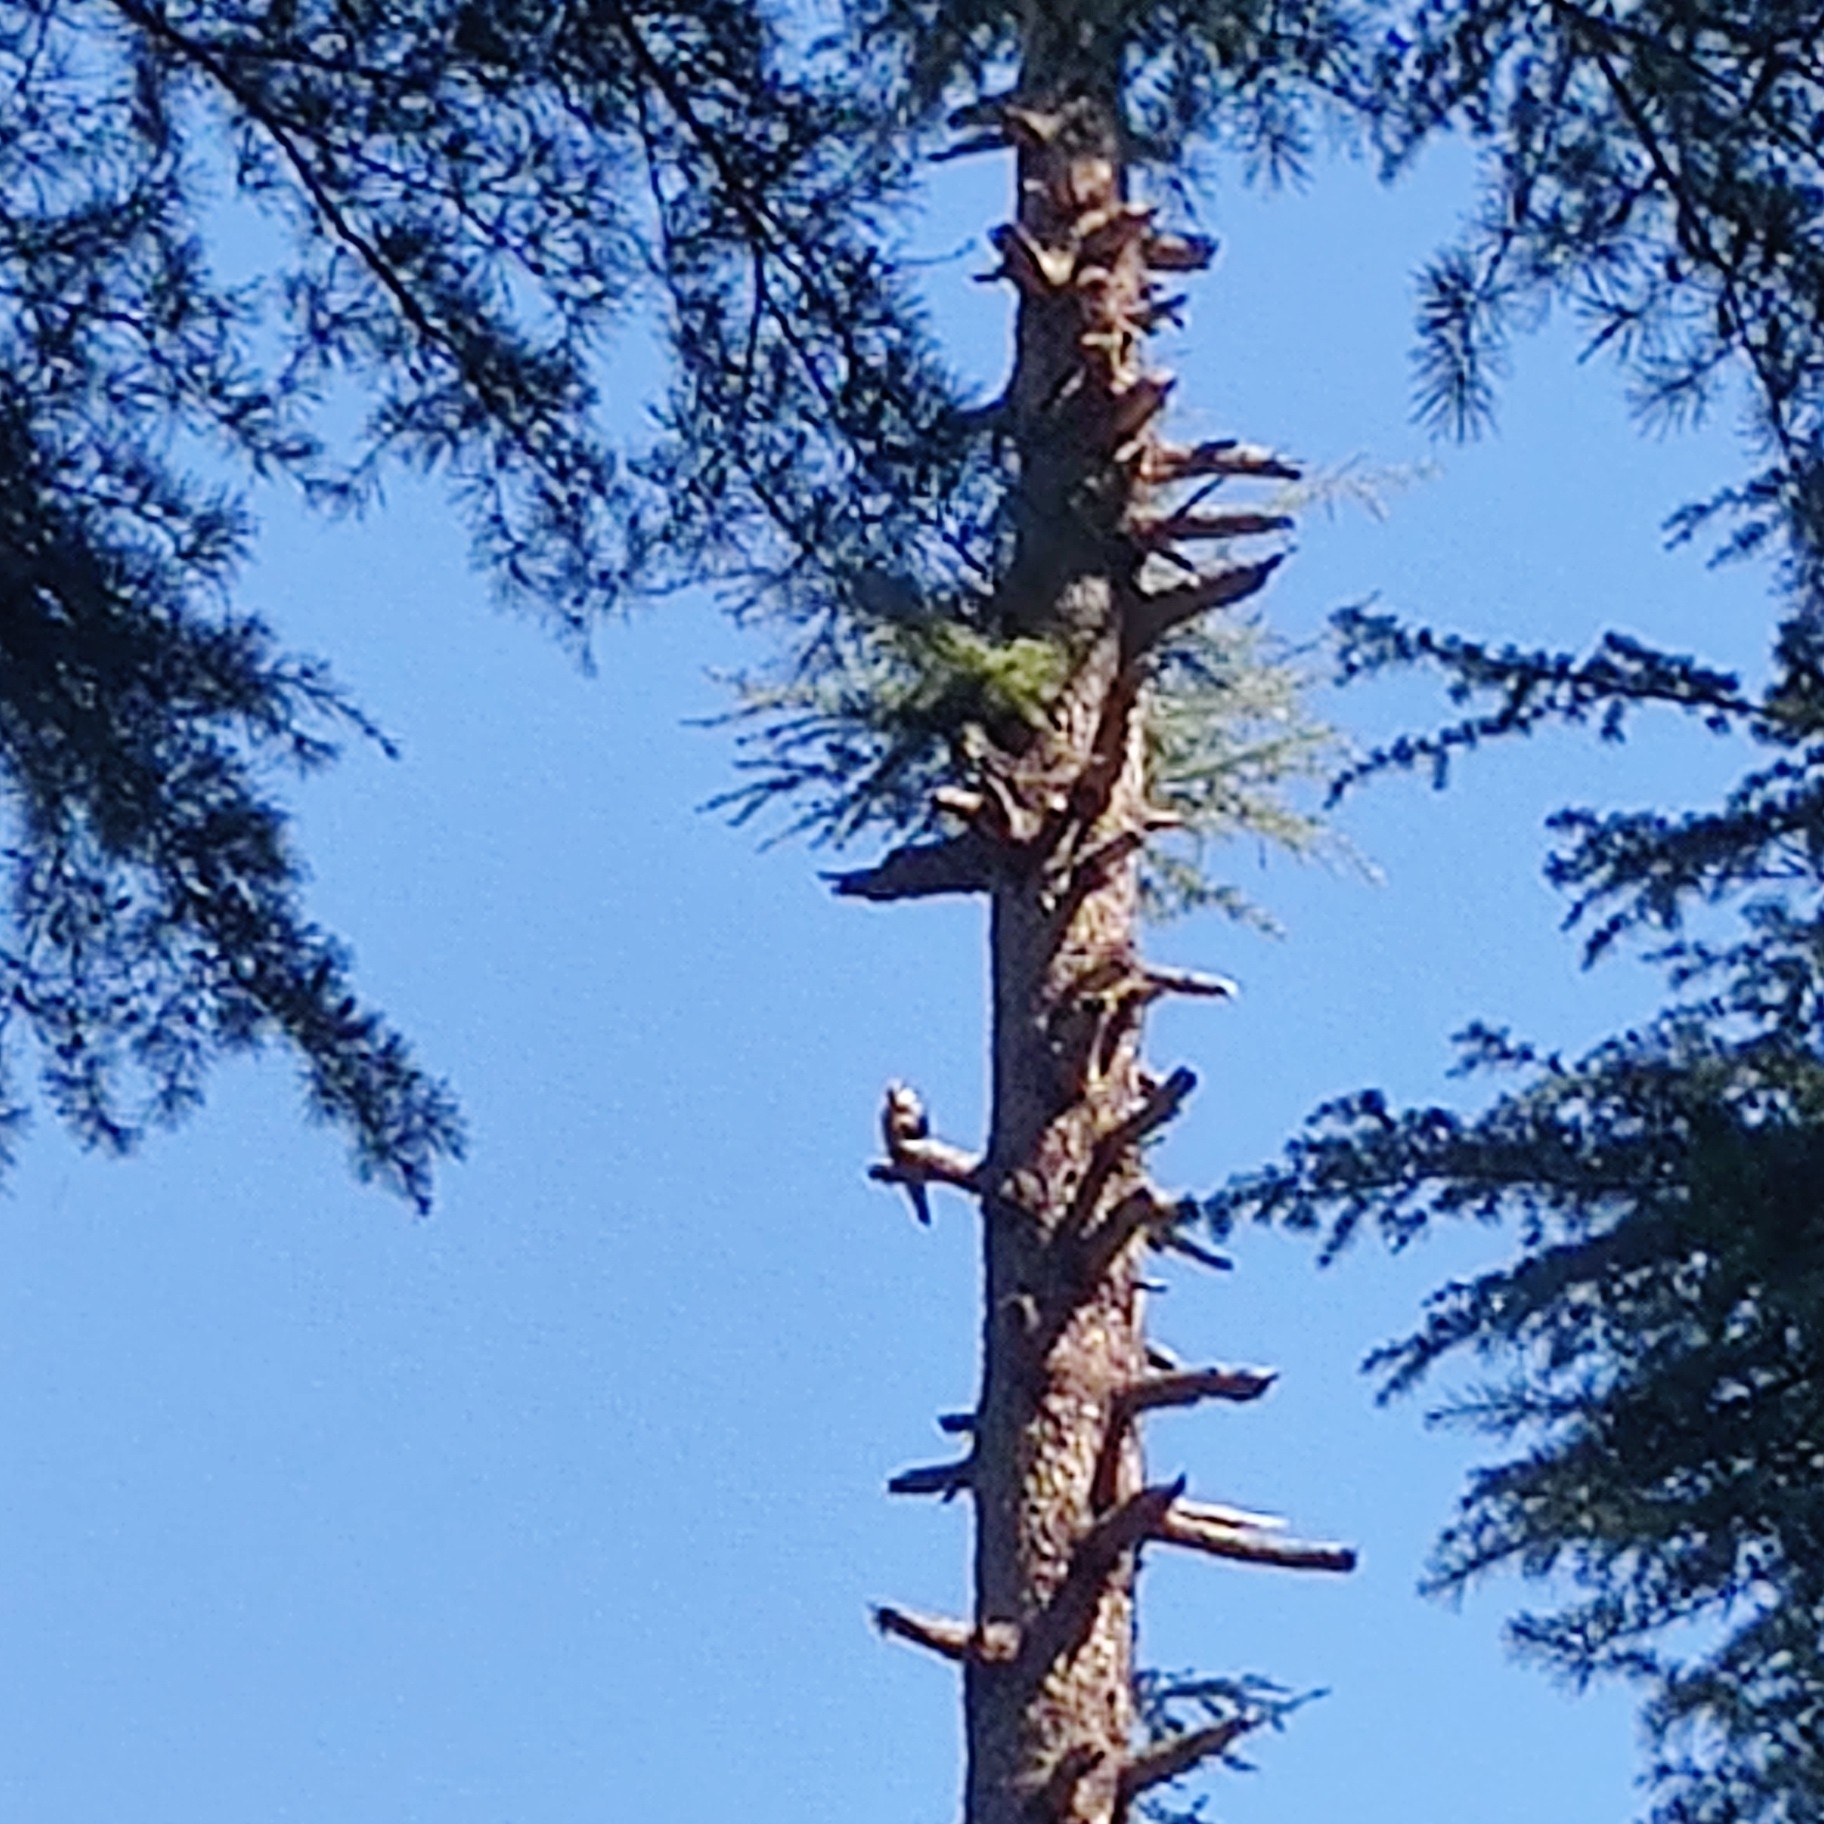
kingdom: Animalia
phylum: Chordata
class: Aves
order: Falconiformes
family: Falconidae
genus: Falco
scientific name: Falco subbuteo
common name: Eurasian hobby
